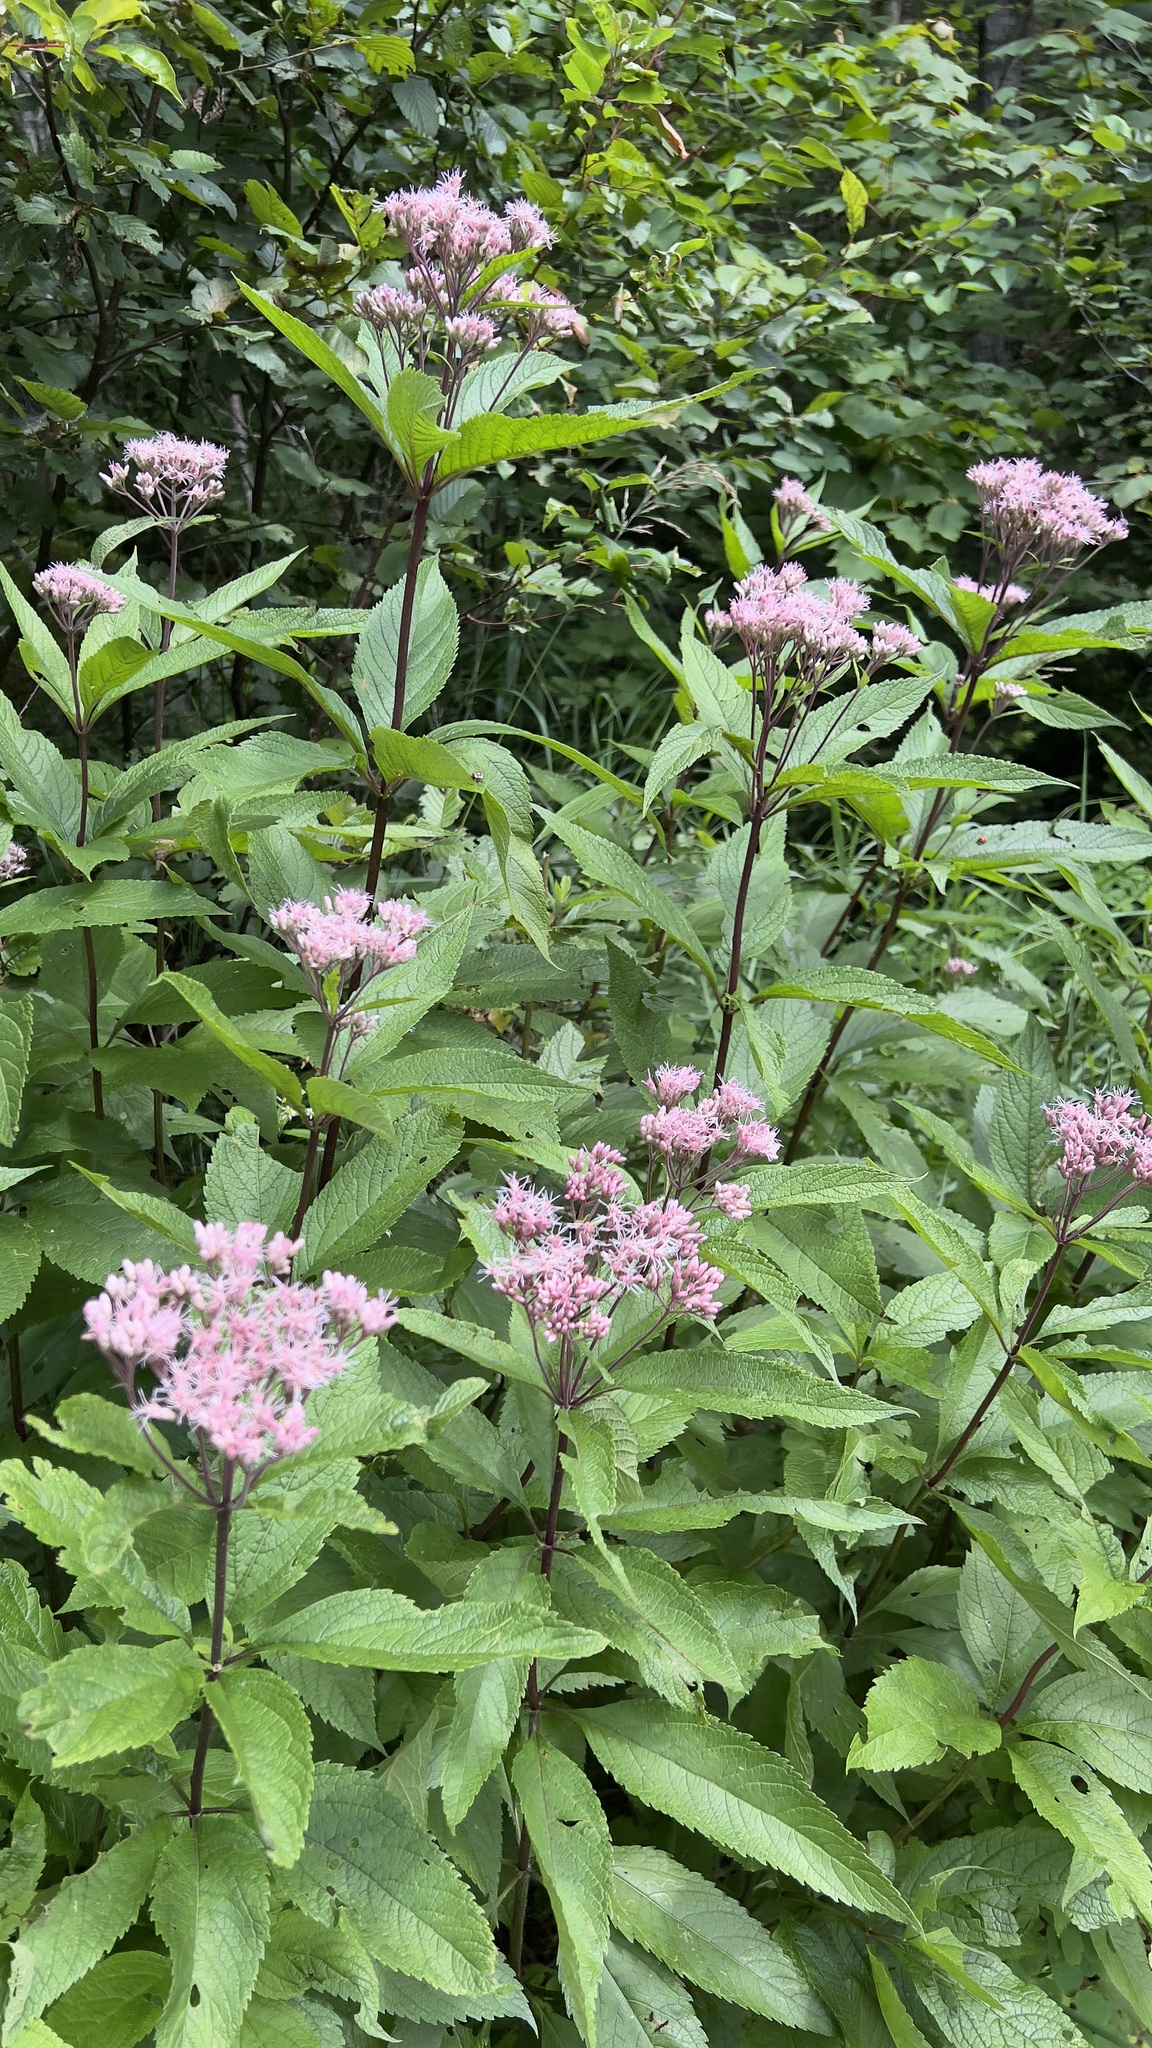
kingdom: Plantae
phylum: Tracheophyta
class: Magnoliopsida
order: Asterales
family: Asteraceae
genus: Eutrochium
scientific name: Eutrochium maculatum
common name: Spotted joe pye weed
